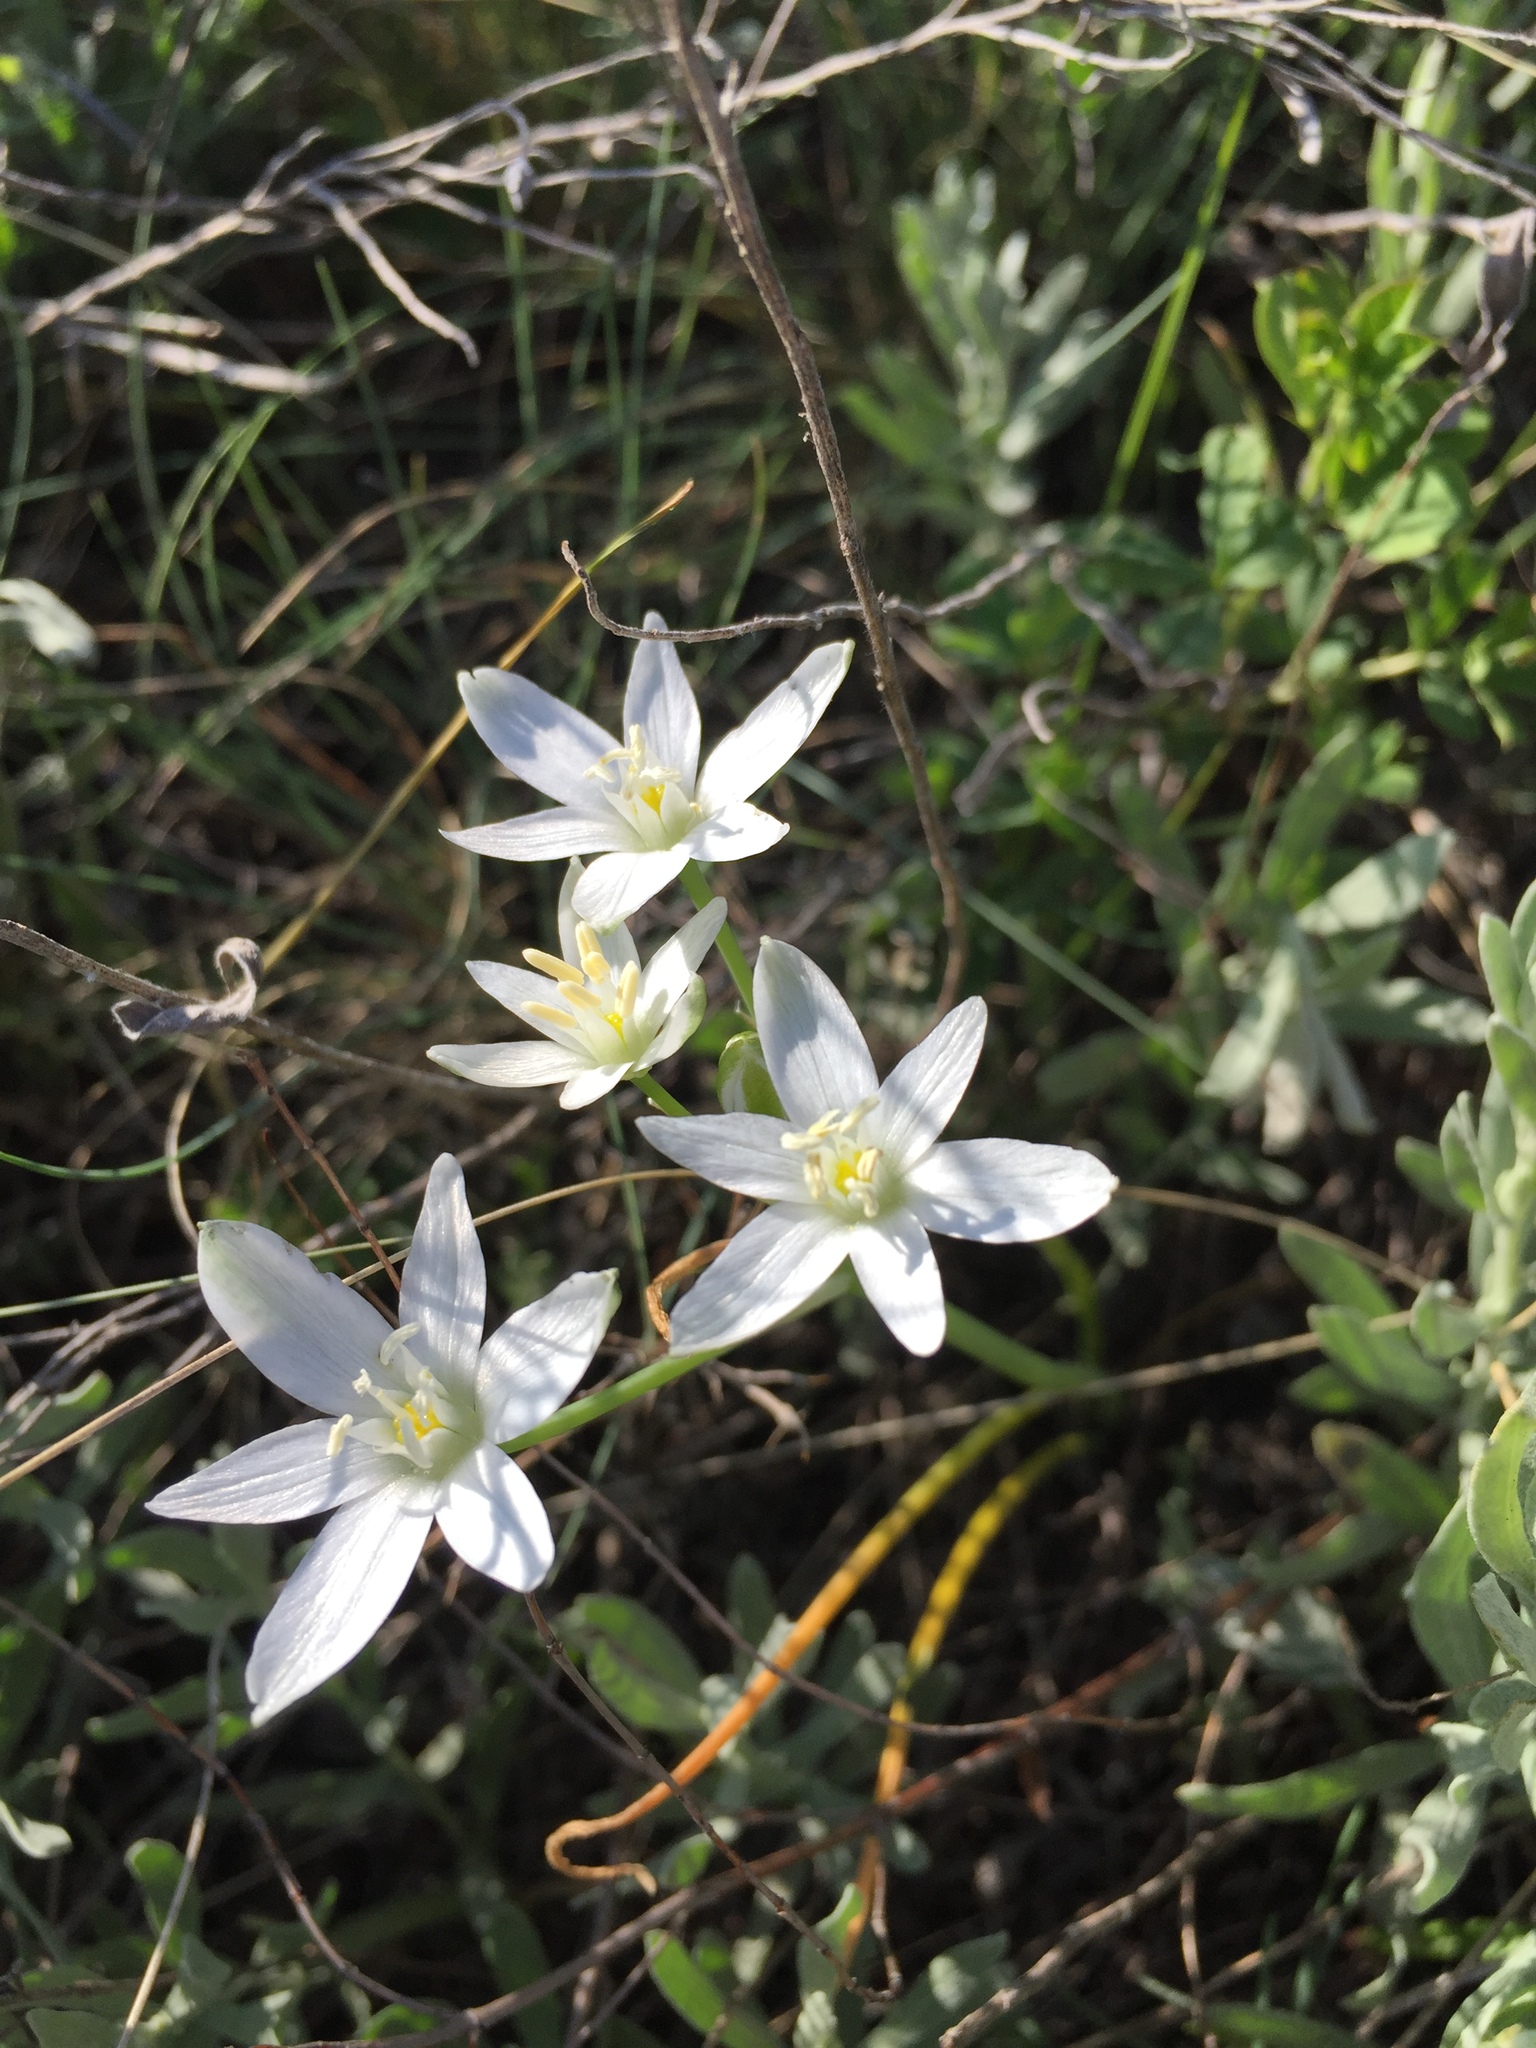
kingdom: Plantae
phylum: Tracheophyta
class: Liliopsida
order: Asparagales
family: Asparagaceae
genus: Ornithogalum
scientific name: Ornithogalum orthophyllum
